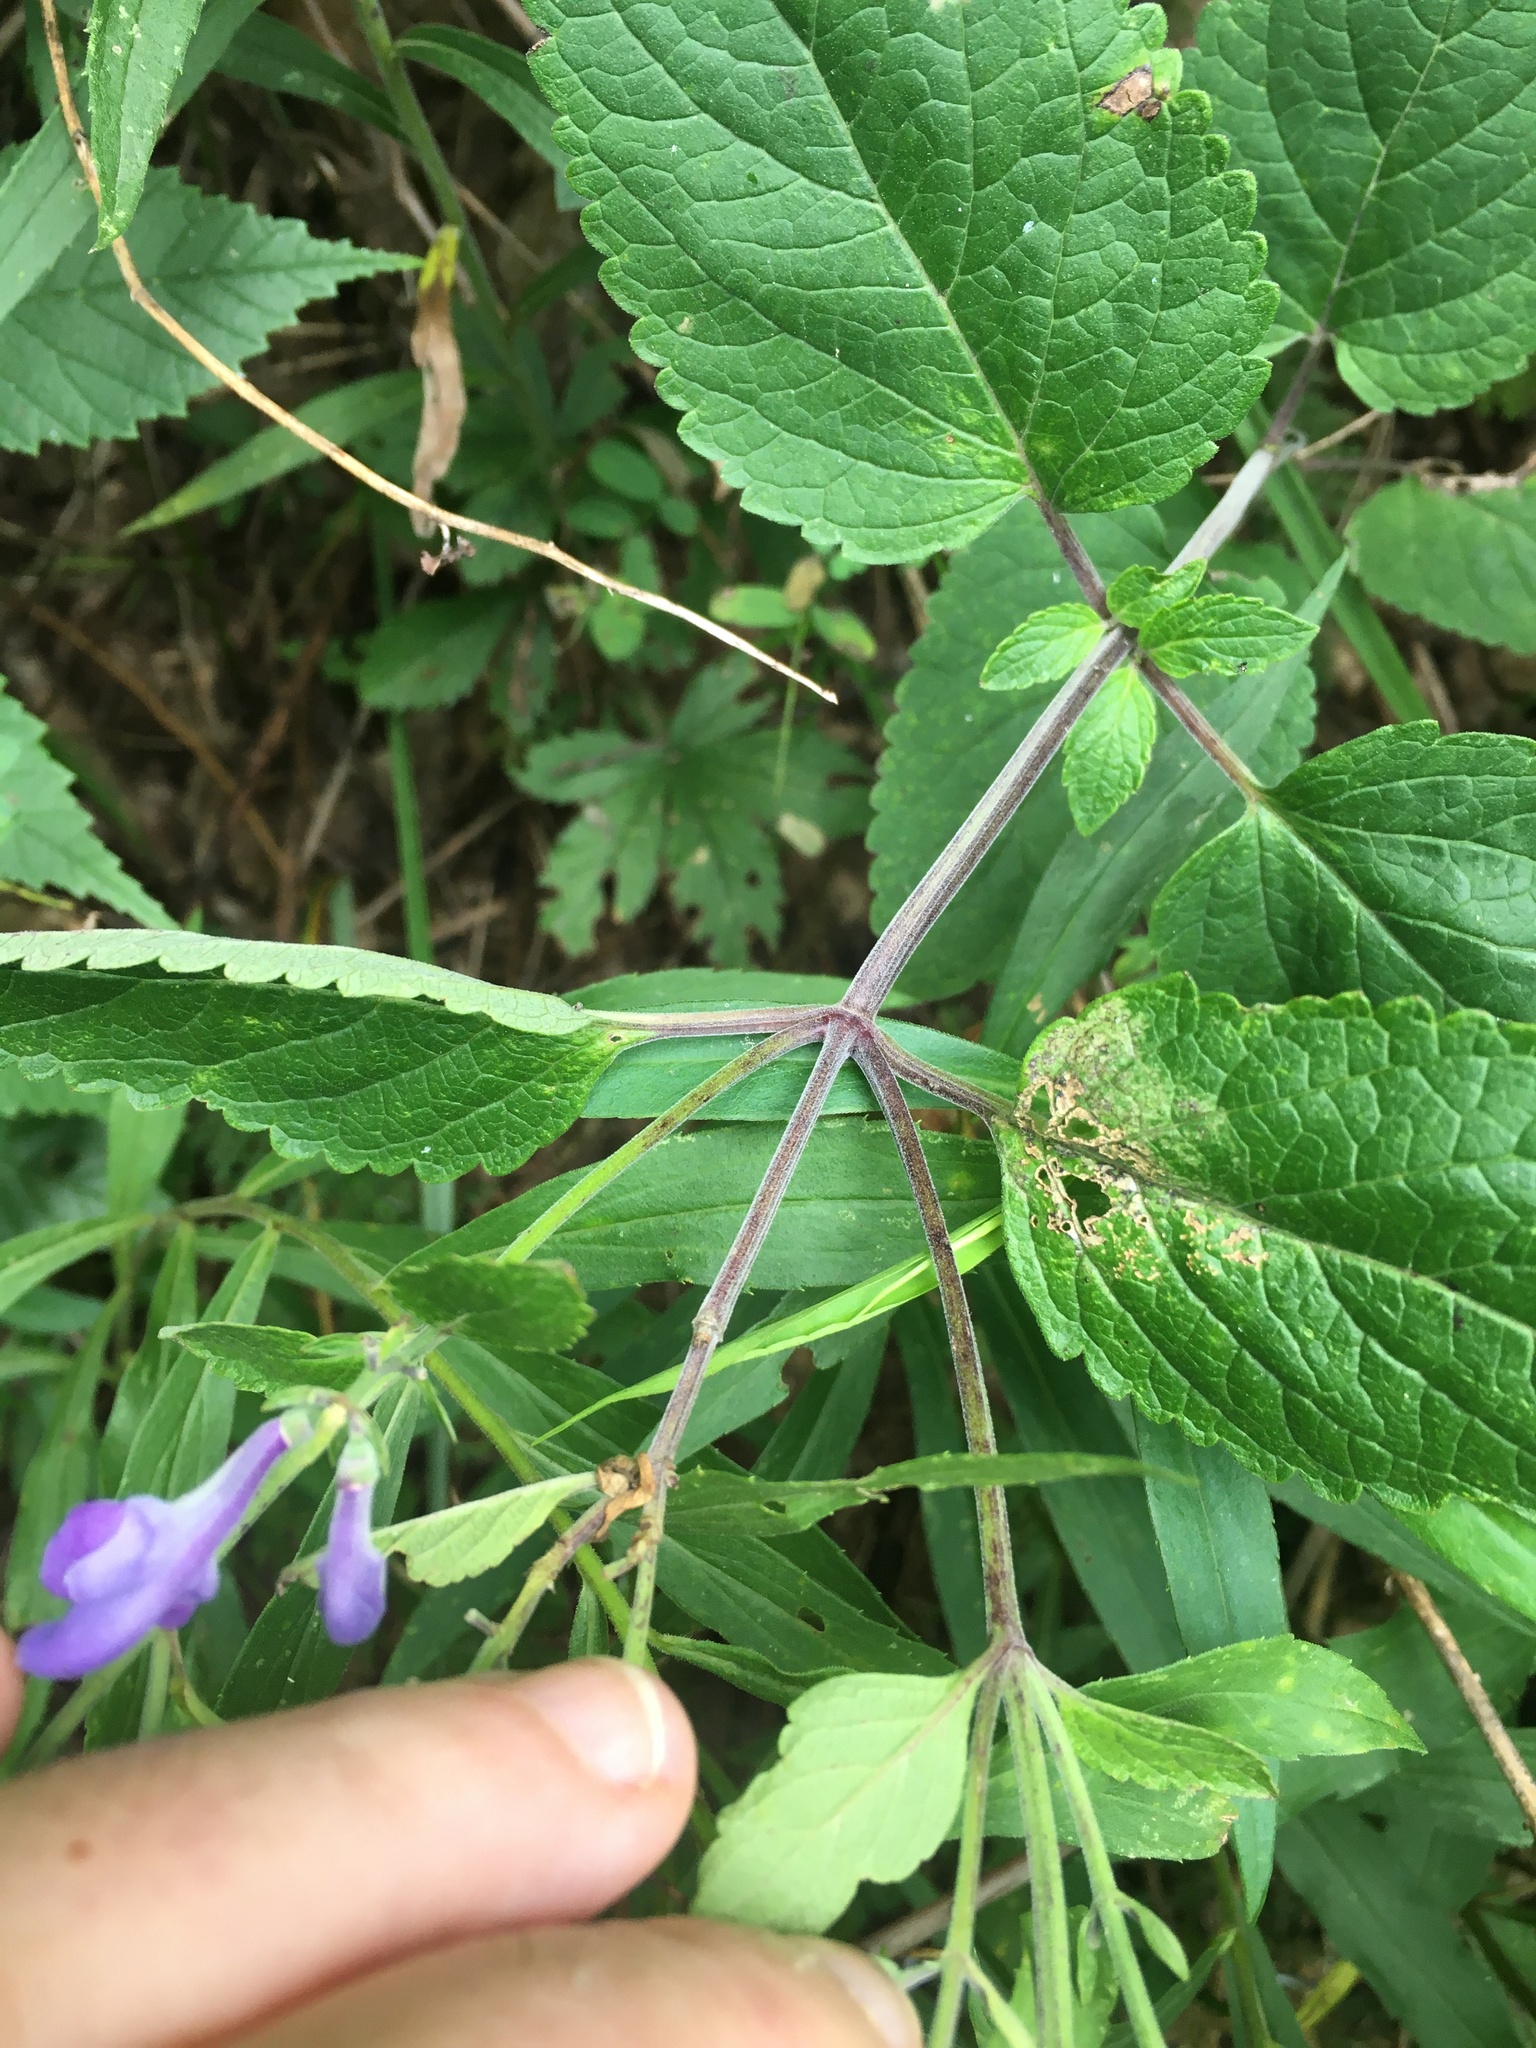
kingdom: Plantae
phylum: Tracheophyta
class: Magnoliopsida
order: Lamiales
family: Lamiaceae
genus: Scutellaria
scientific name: Scutellaria incana
